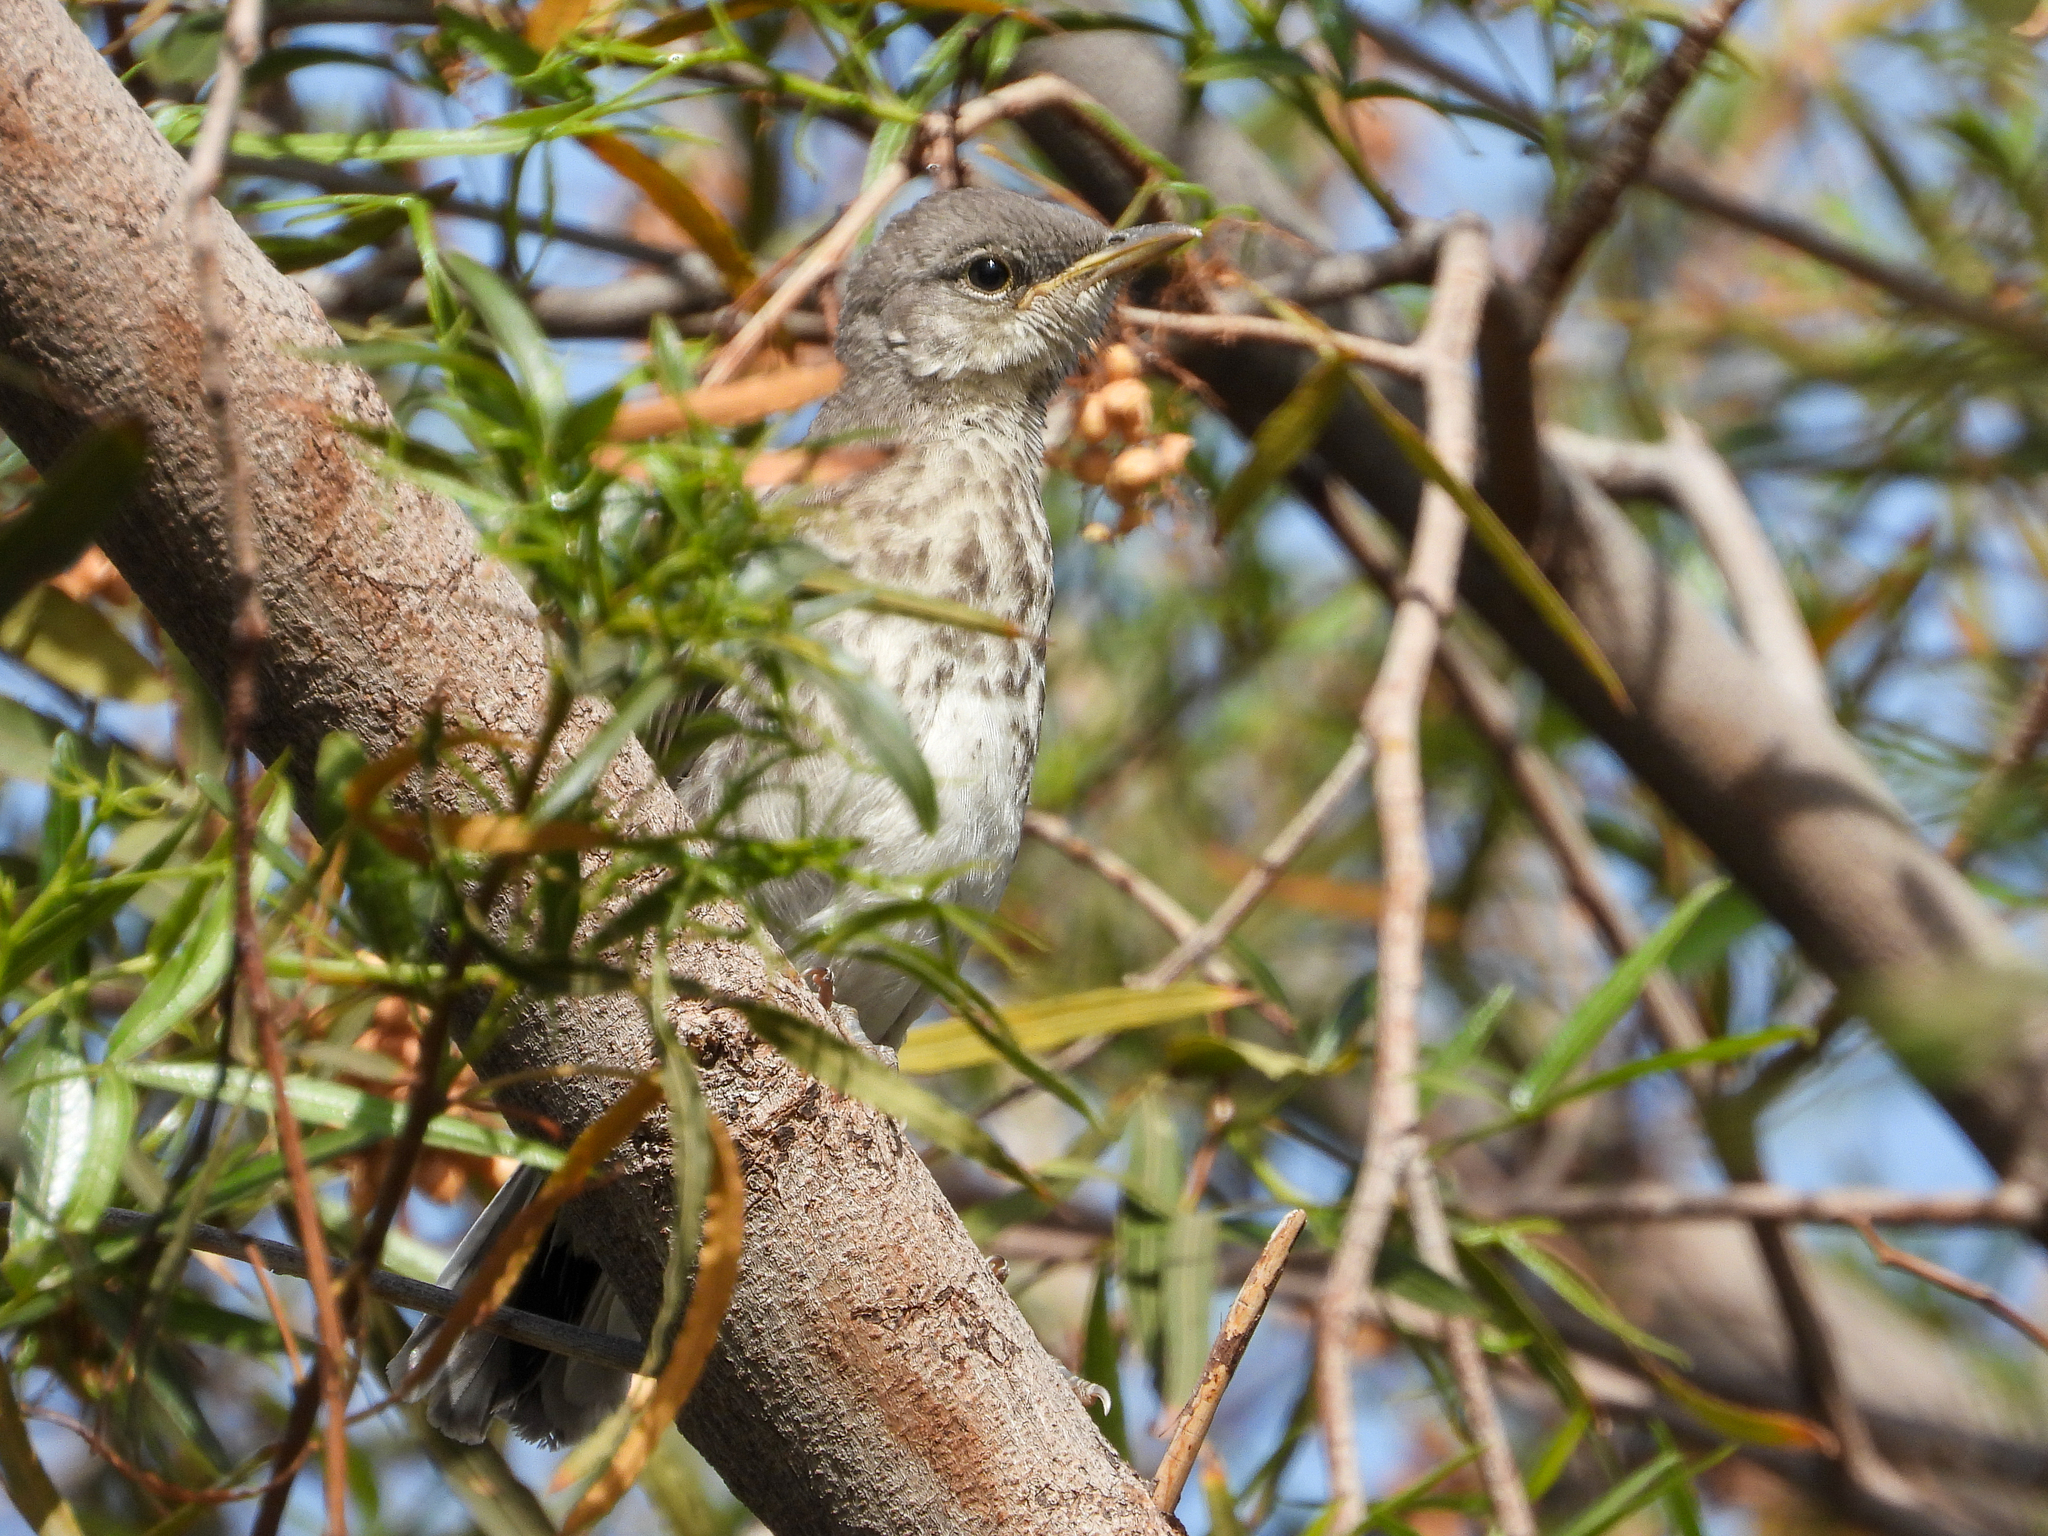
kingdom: Animalia
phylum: Chordata
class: Aves
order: Passeriformes
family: Mimidae
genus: Mimus
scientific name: Mimus polyglottos
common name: Northern mockingbird
